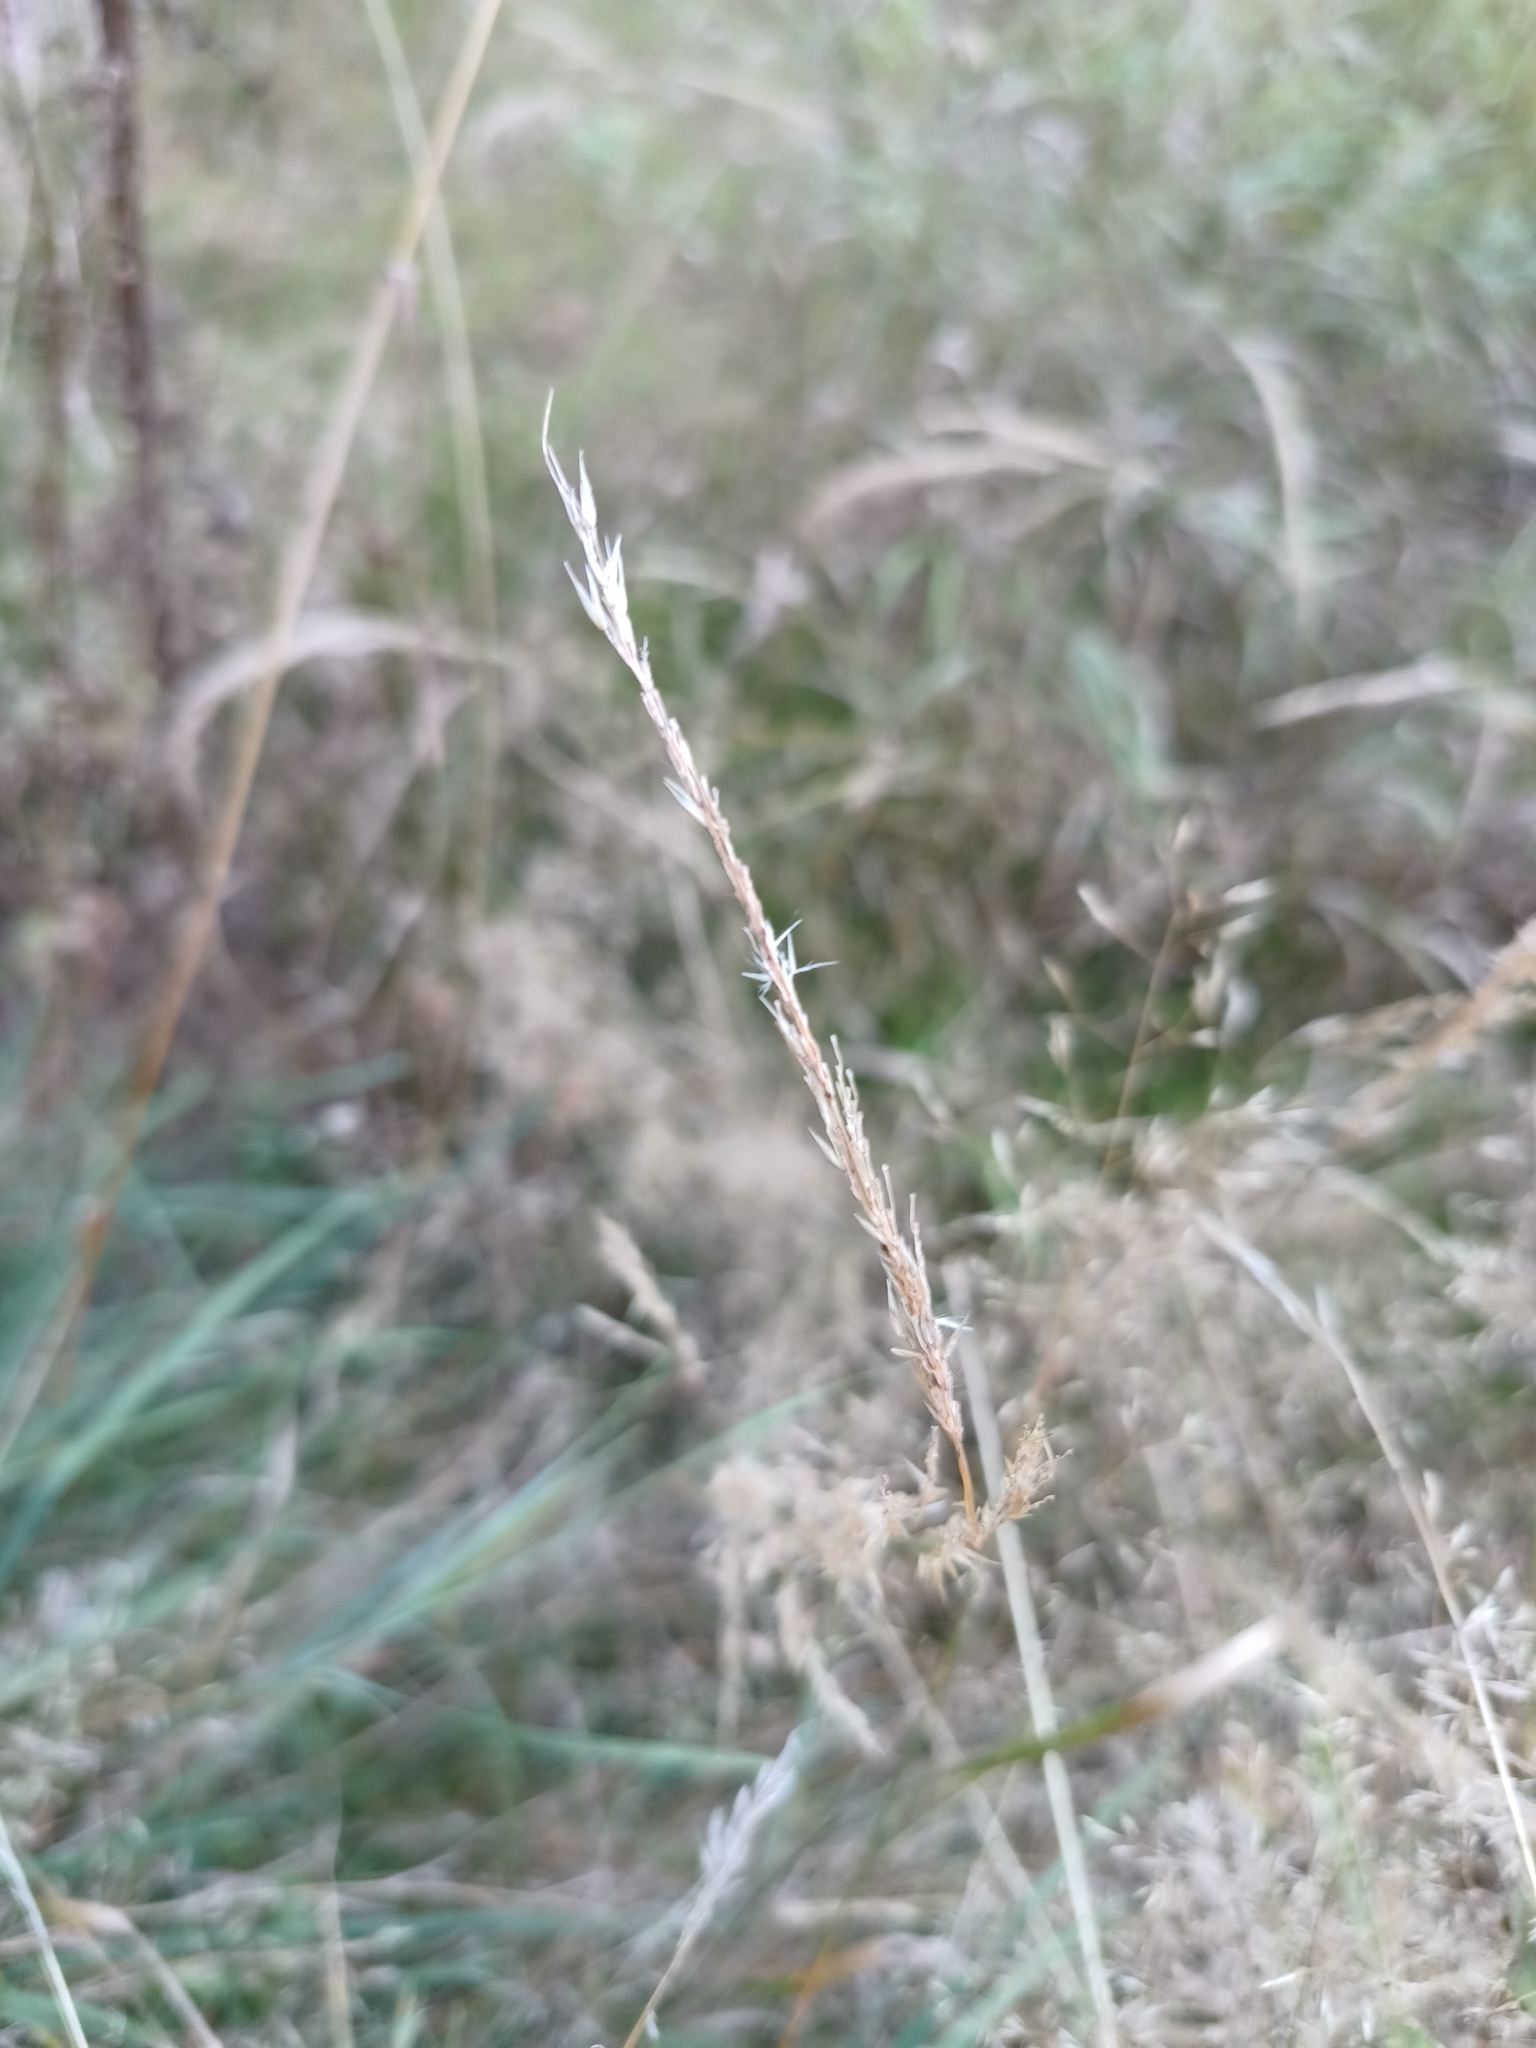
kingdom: Plantae
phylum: Tracheophyta
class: Liliopsida
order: Poales
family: Poaceae
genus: Calamagrostis
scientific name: Calamagrostis villosa
